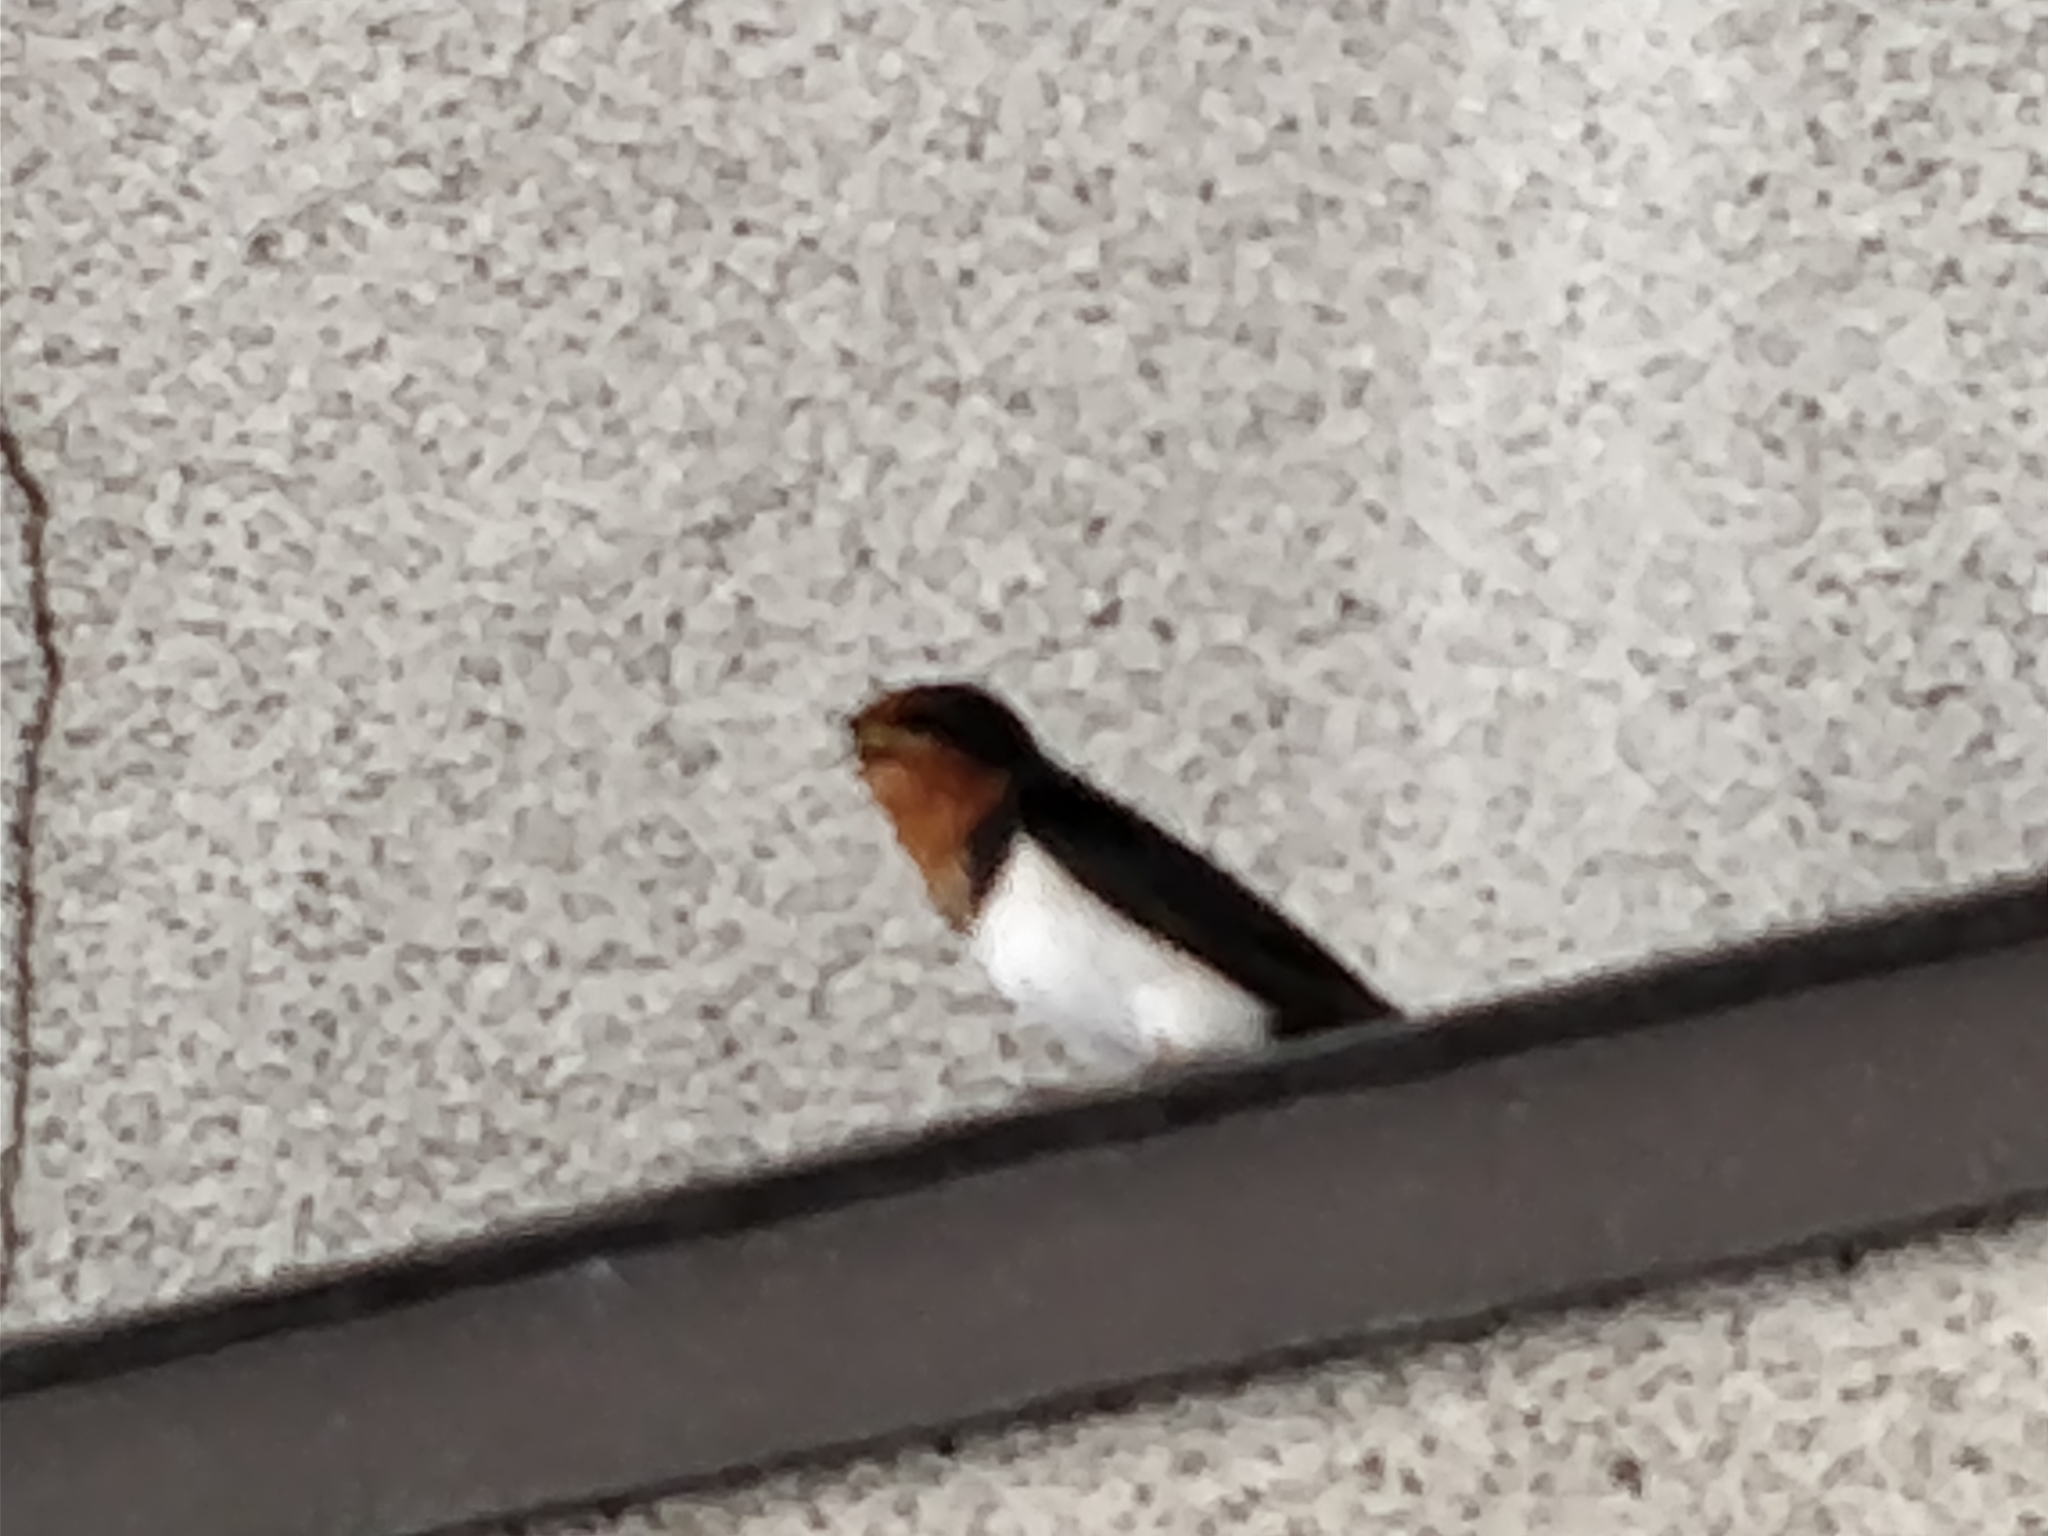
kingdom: Animalia
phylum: Chordata
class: Aves
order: Passeriformes
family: Hirundinidae
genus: Hirundo
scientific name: Hirundo rustica
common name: Barn swallow
